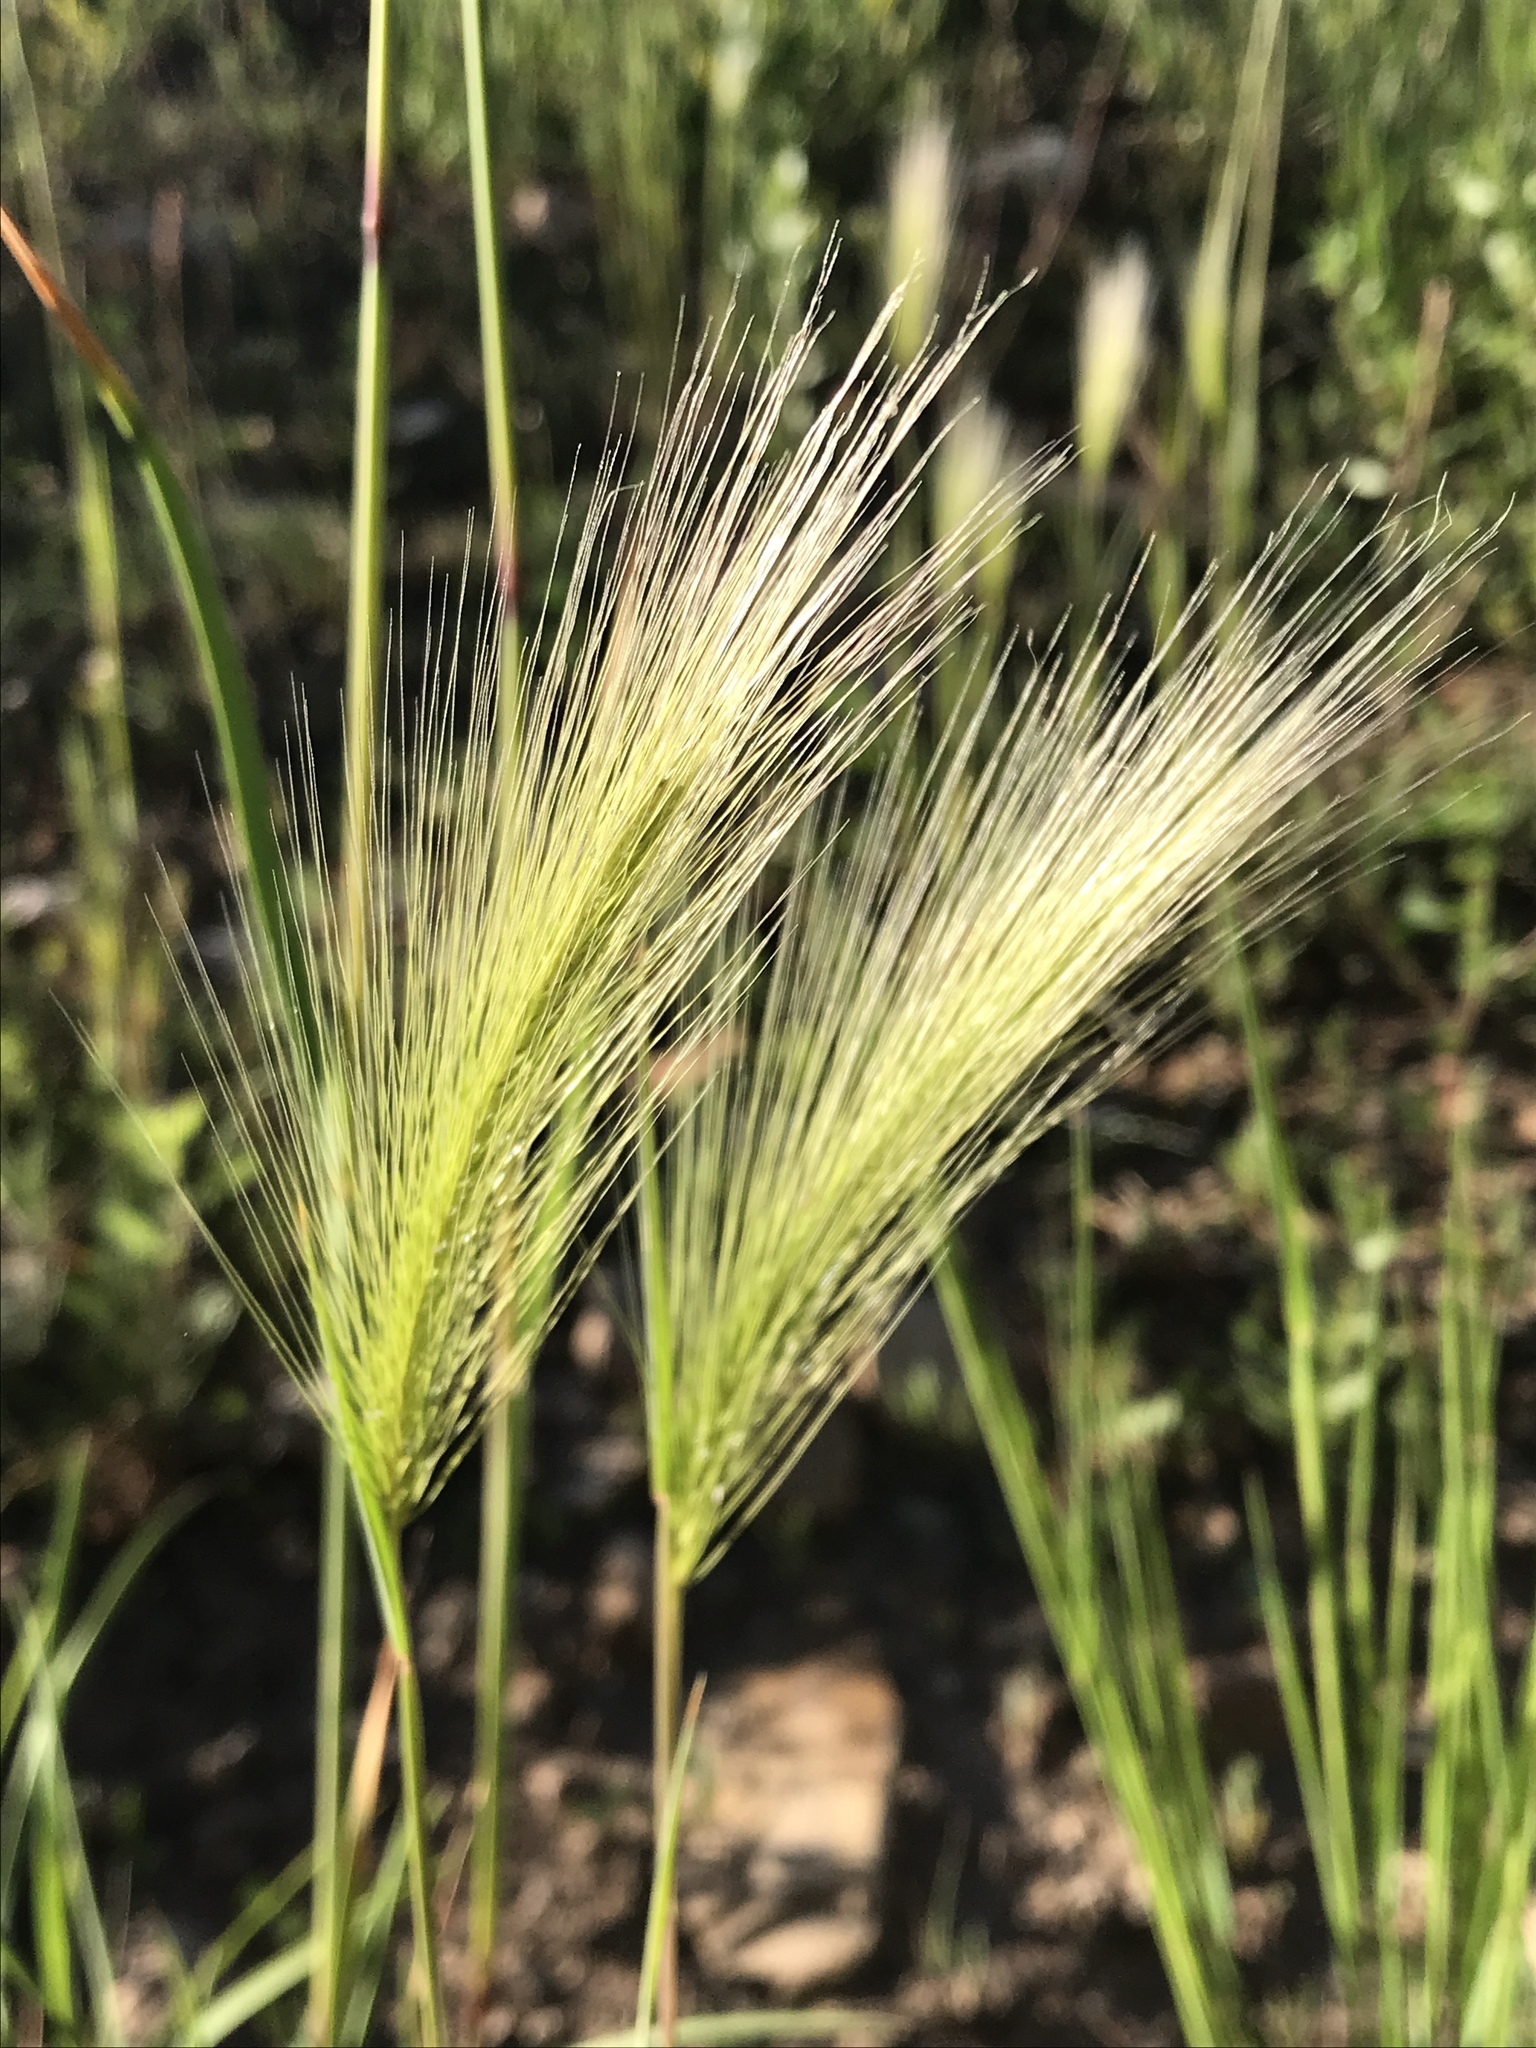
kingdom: Plantae
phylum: Tracheophyta
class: Liliopsida
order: Poales
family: Poaceae
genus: Hordeum
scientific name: Hordeum jubatum
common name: Foxtail barley
